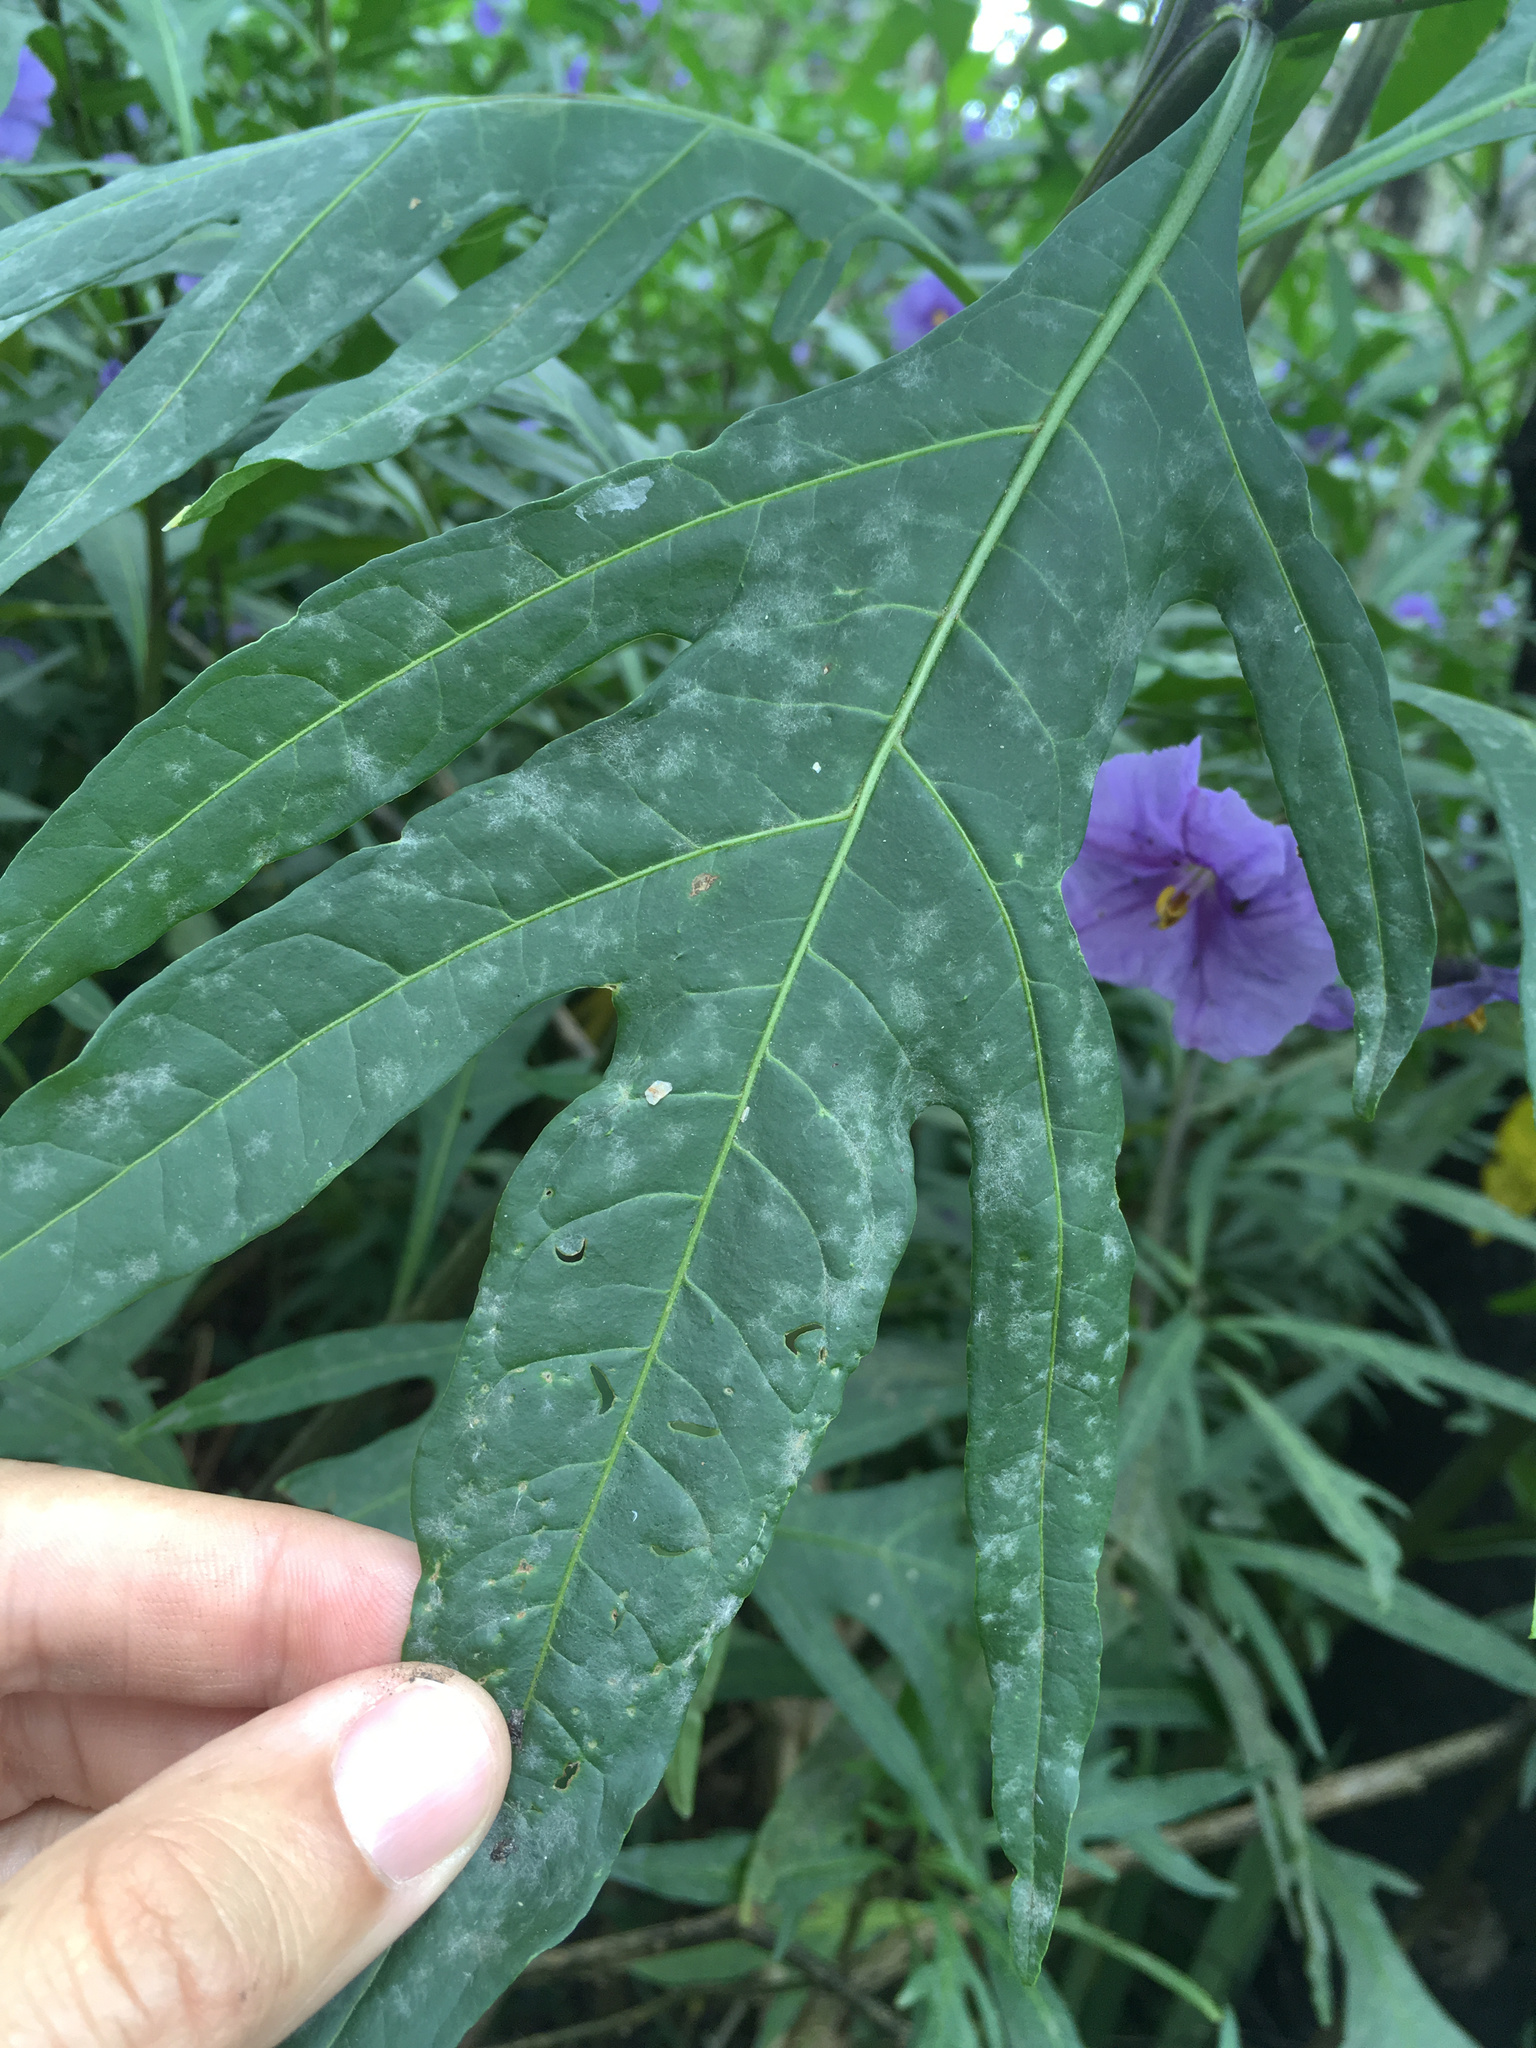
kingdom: Fungi
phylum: Ascomycota
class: Leotiomycetes
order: Helotiales
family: Erysiphaceae
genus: Golovinomyces
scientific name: Golovinomyces longipes
